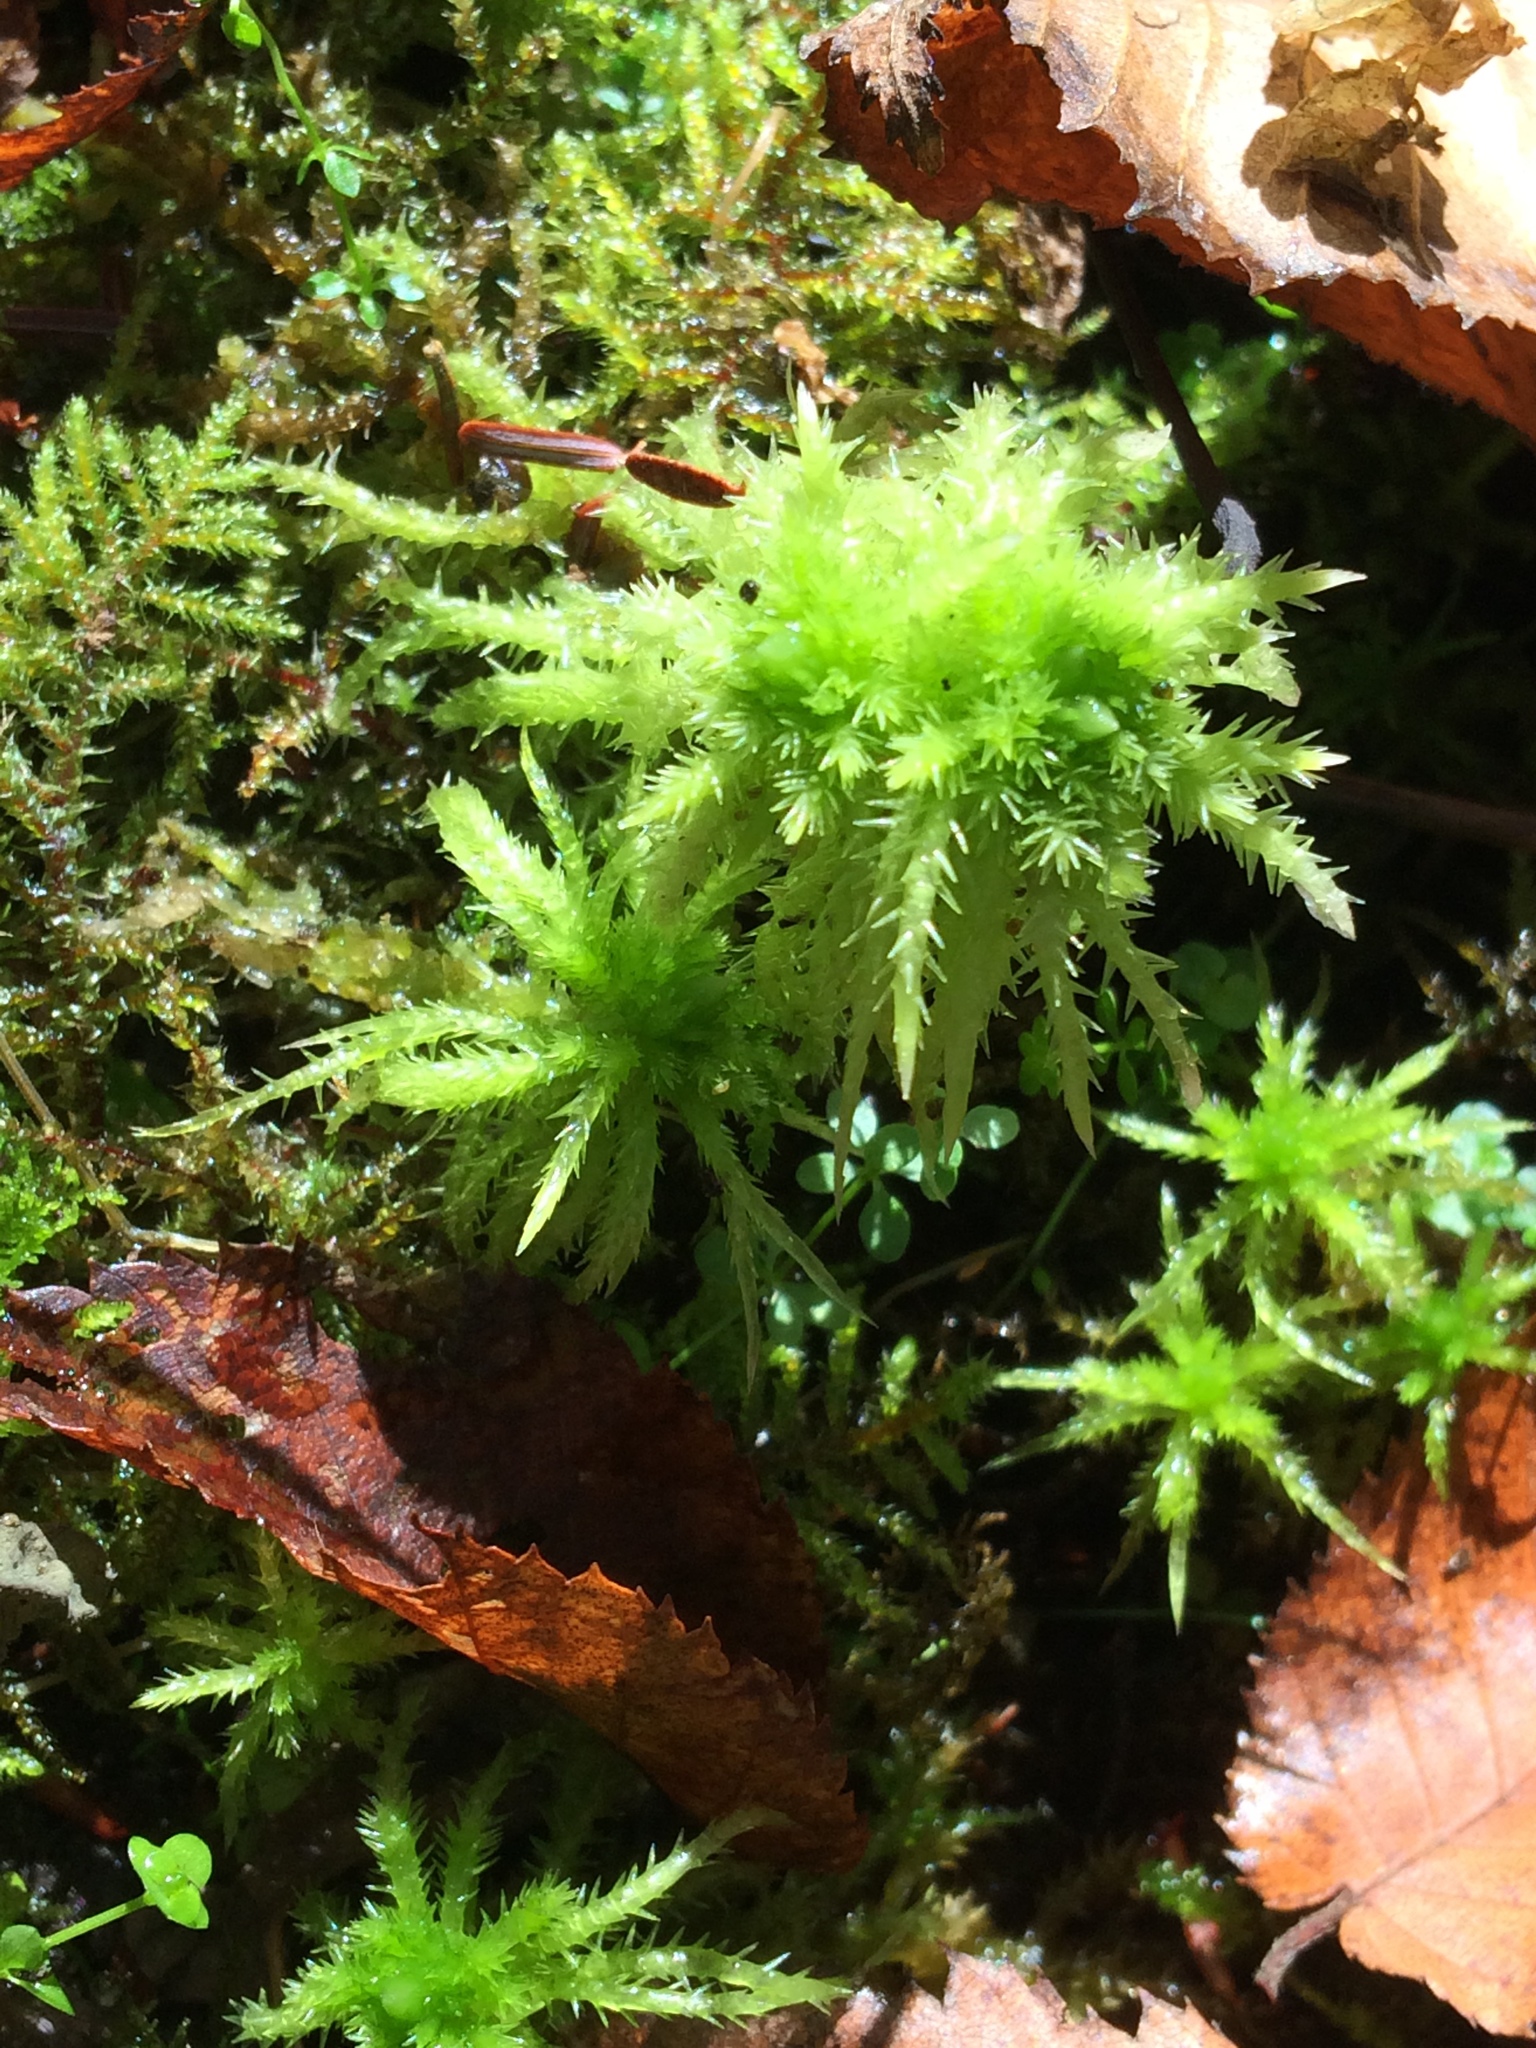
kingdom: Plantae
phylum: Bryophyta
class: Sphagnopsida
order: Sphagnales
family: Sphagnaceae
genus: Sphagnum
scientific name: Sphagnum squarrosum
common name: Shaggy peat moss
